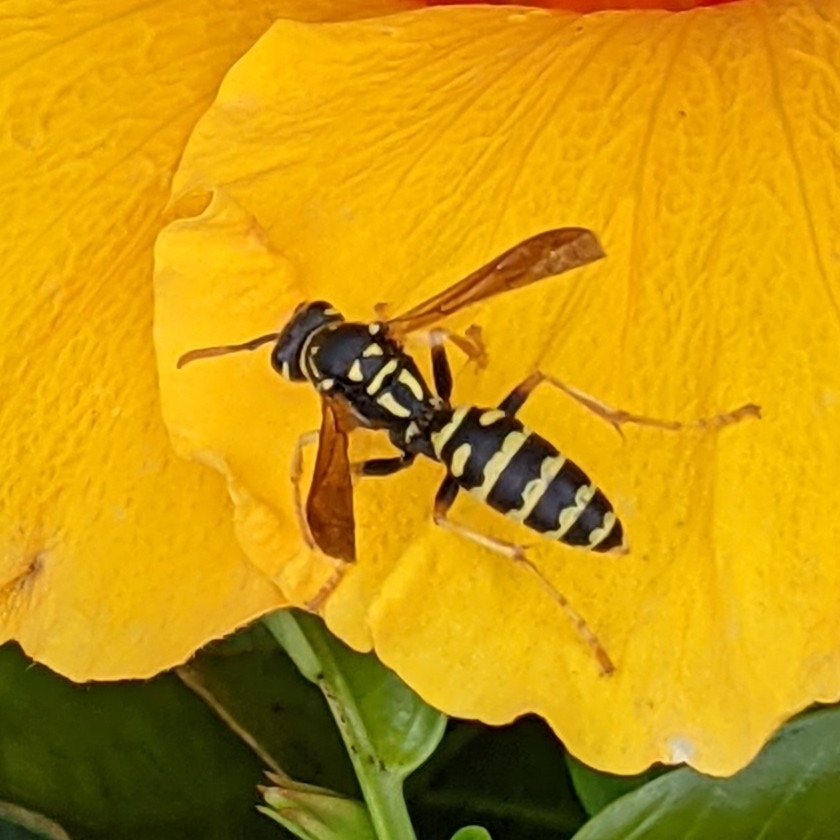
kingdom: Animalia
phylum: Arthropoda
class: Insecta
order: Hymenoptera
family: Eumenidae
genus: Polistes
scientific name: Polistes dominula
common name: Paper wasp
